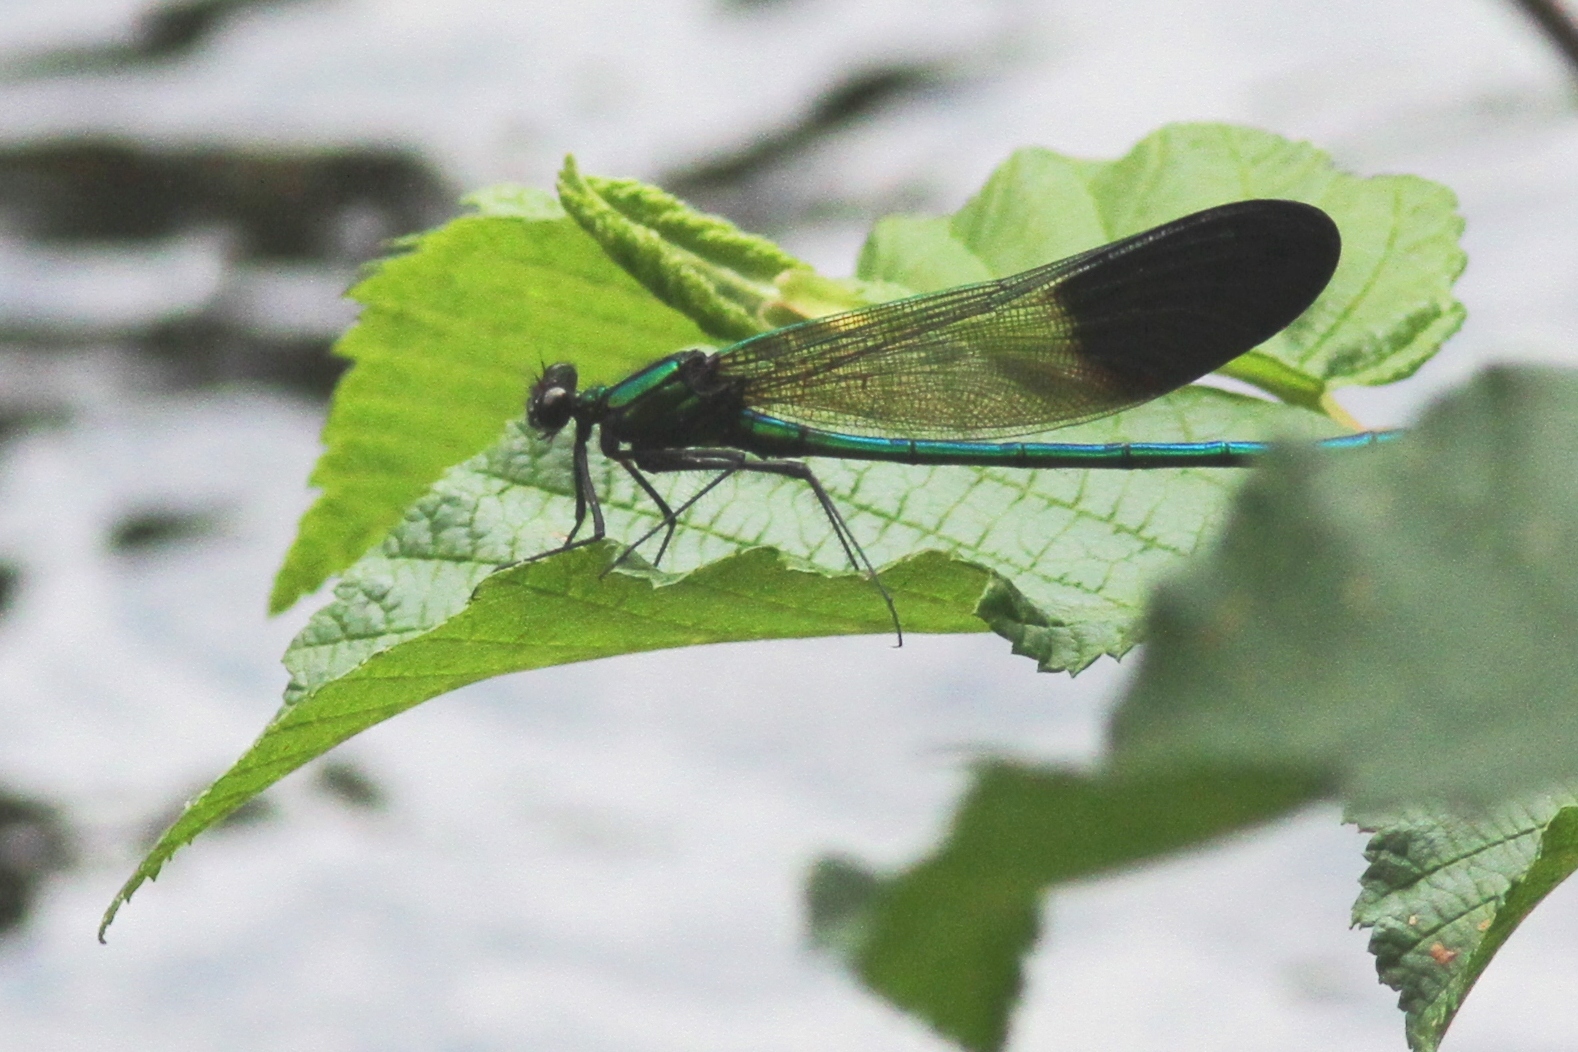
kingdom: Animalia
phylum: Arthropoda
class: Insecta
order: Odonata
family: Calopterygidae
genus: Calopteryx
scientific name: Calopteryx aequabilis
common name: River jewelwing
